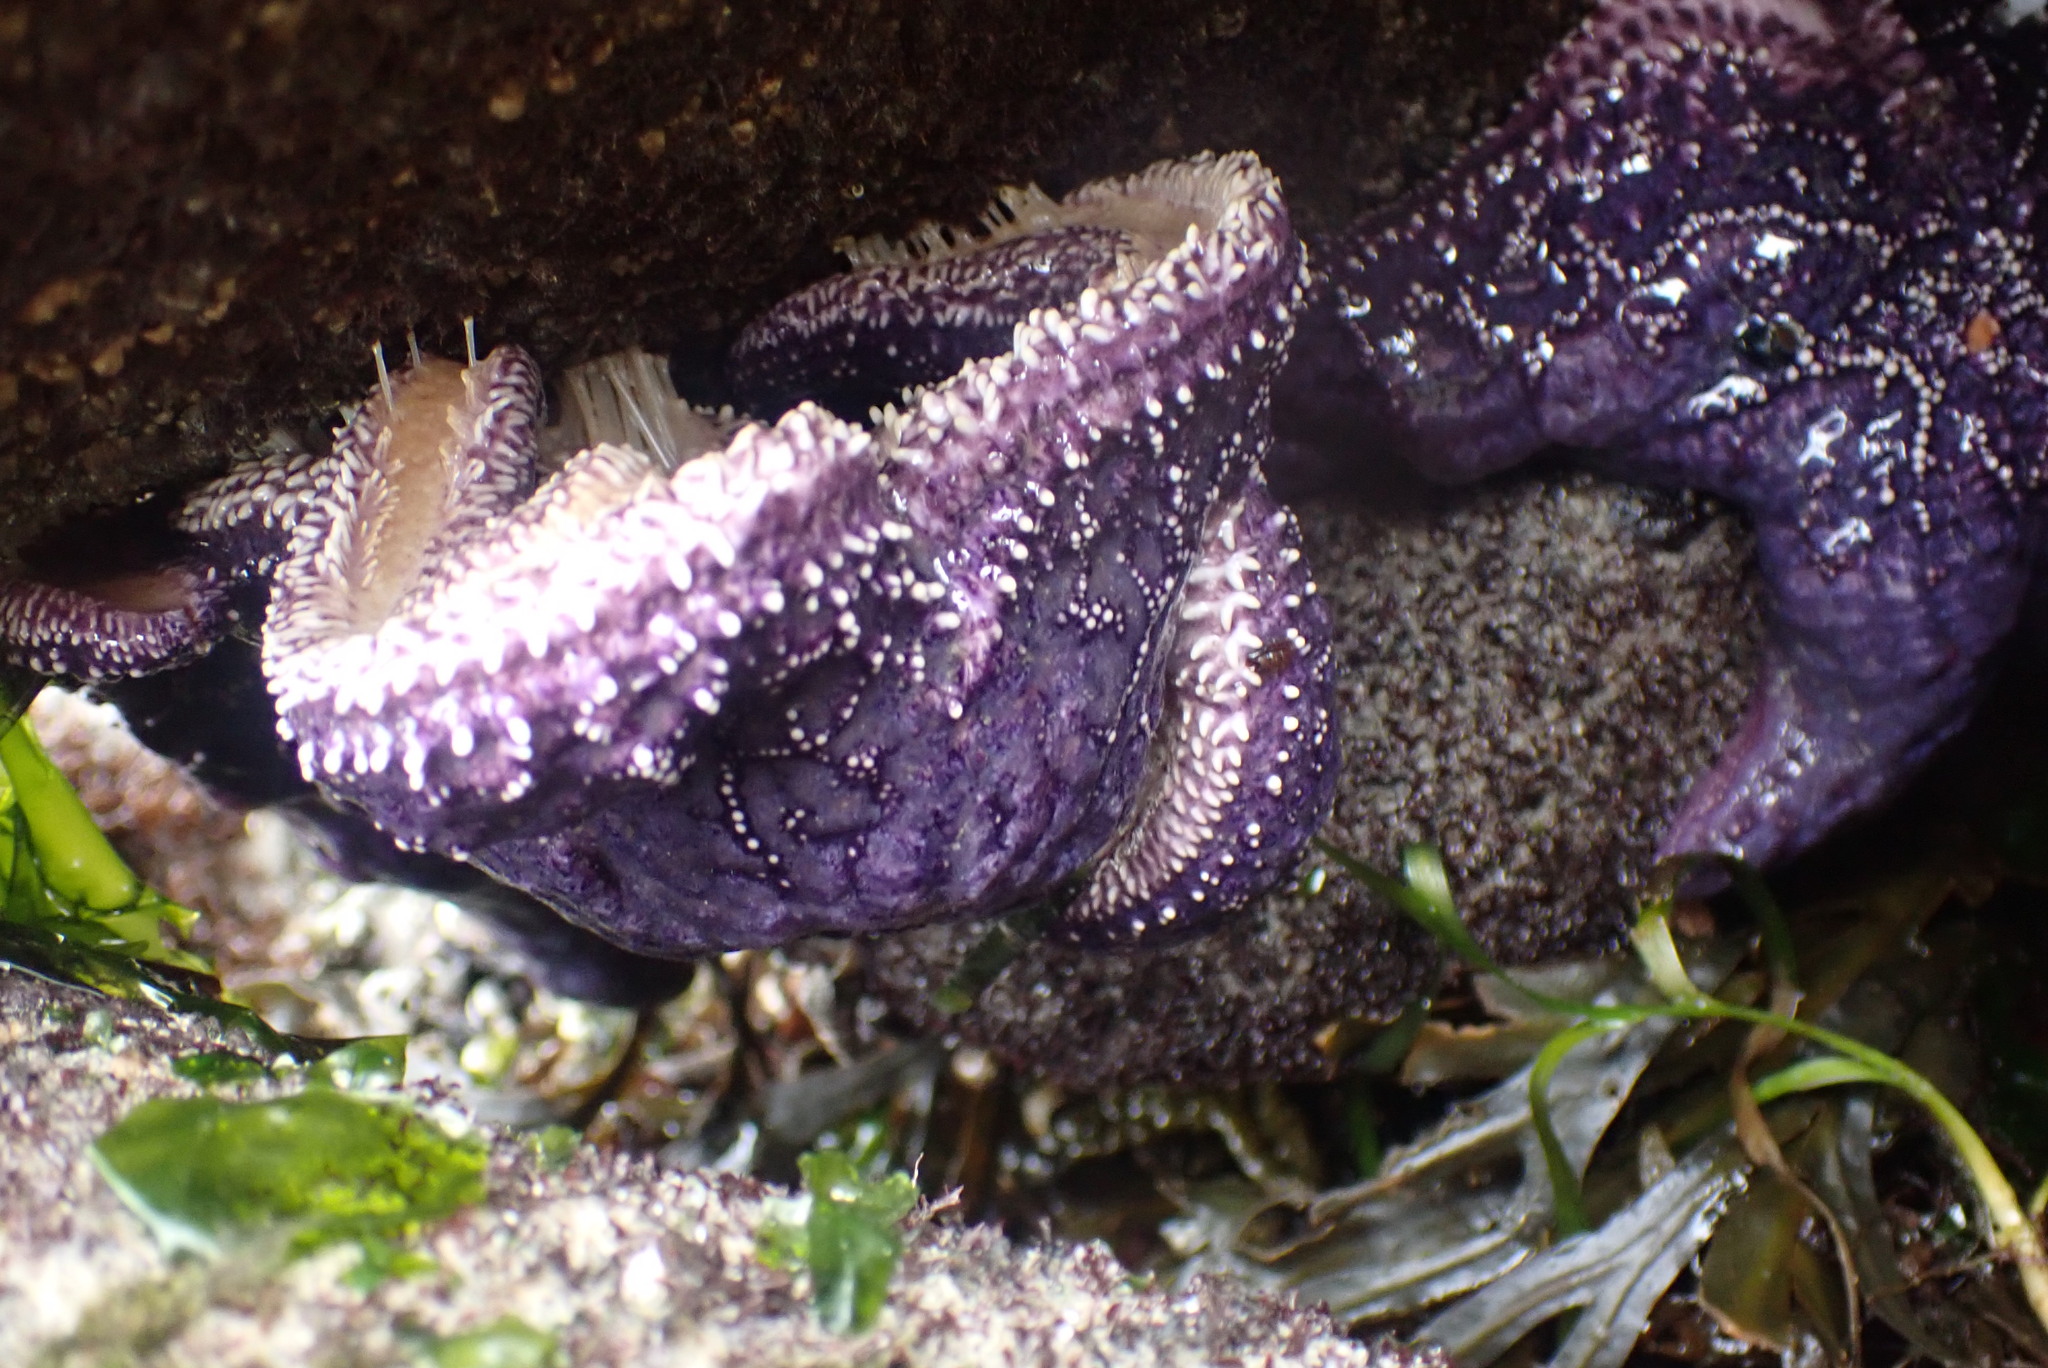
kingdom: Animalia
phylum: Echinodermata
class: Asteroidea
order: Forcipulatida
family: Asteriidae
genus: Pisaster
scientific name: Pisaster ochraceus
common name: Ochre stars
